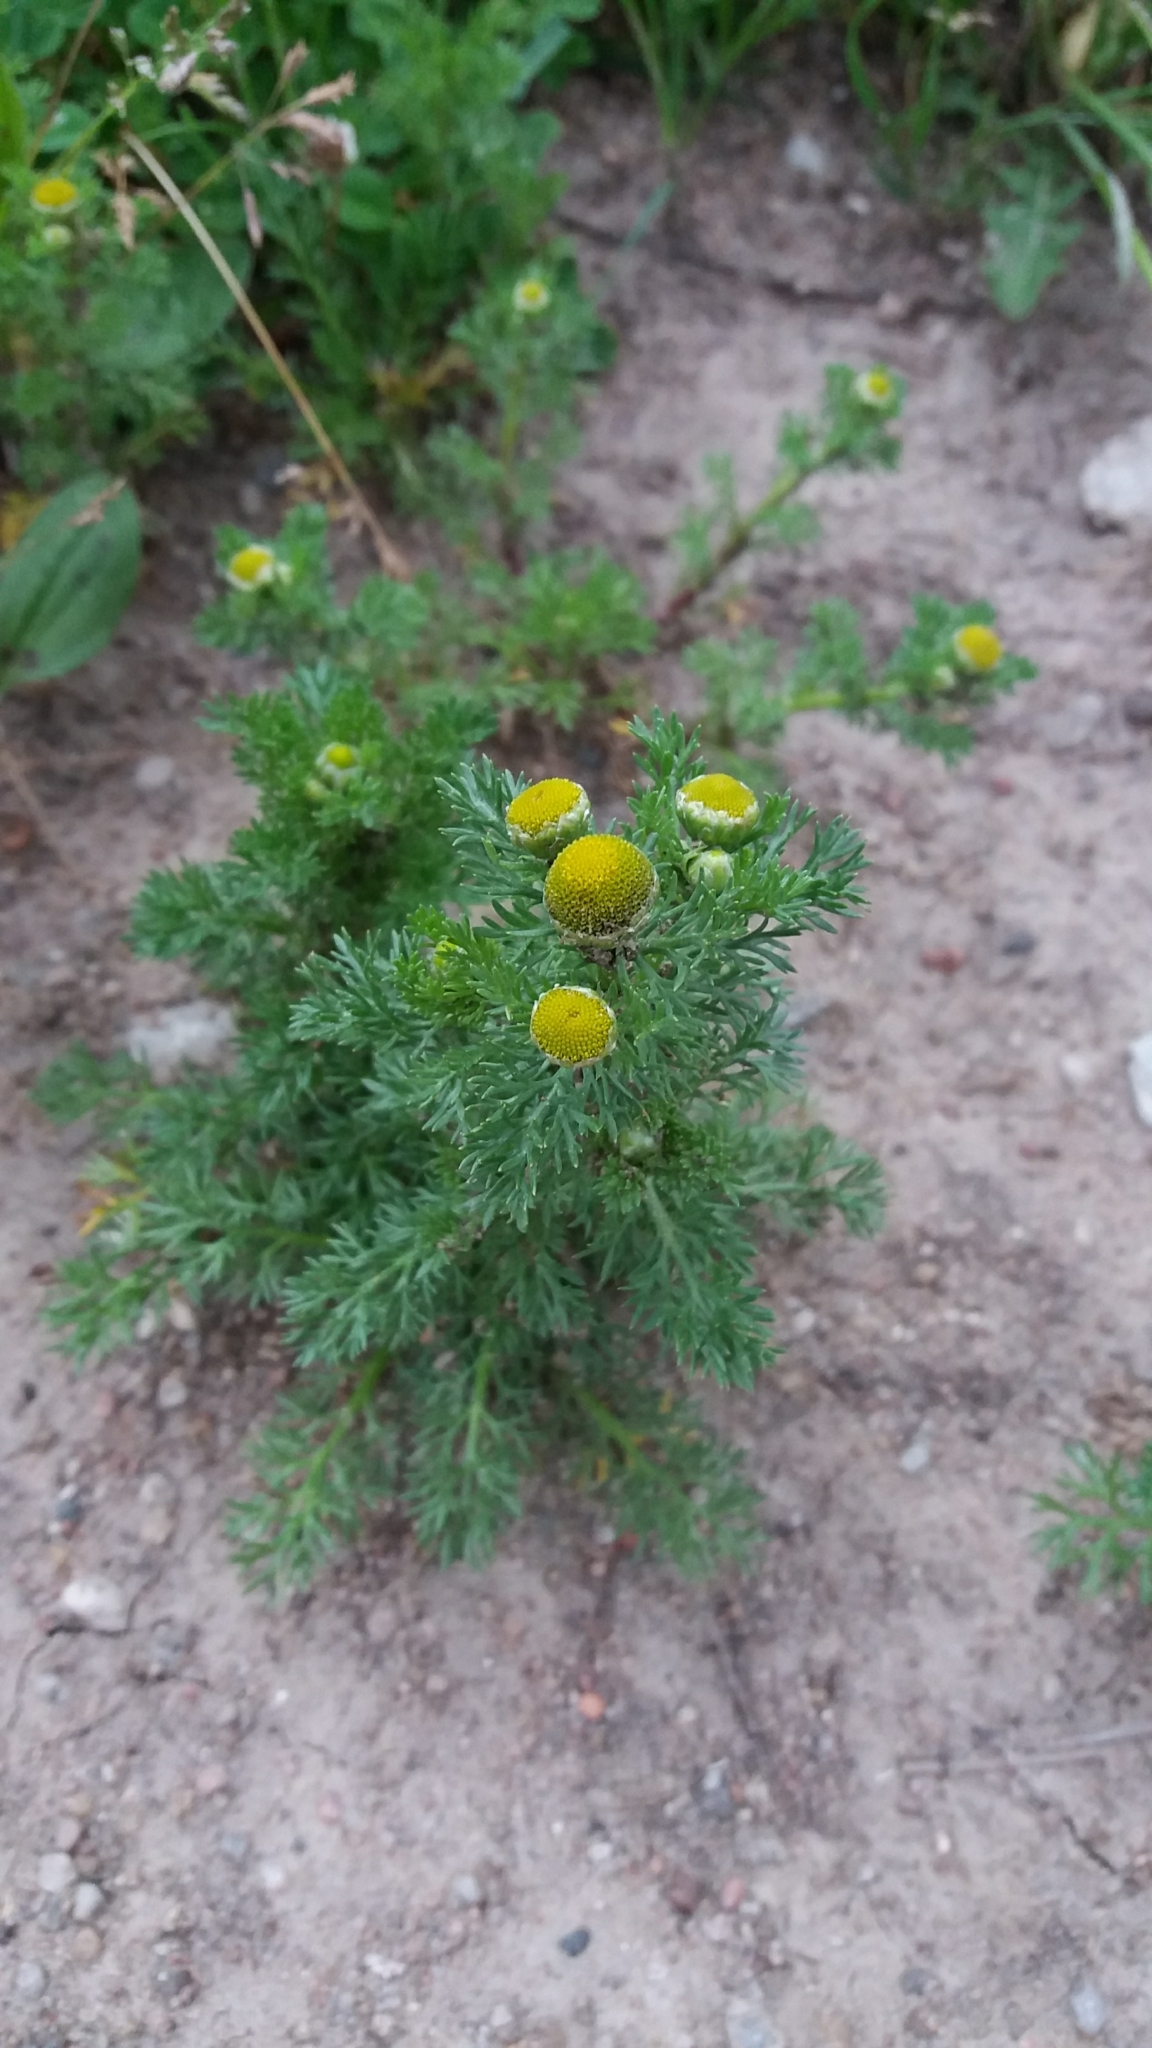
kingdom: Plantae
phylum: Tracheophyta
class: Magnoliopsida
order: Asterales
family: Asteraceae
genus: Matricaria
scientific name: Matricaria discoidea
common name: Disc mayweed
